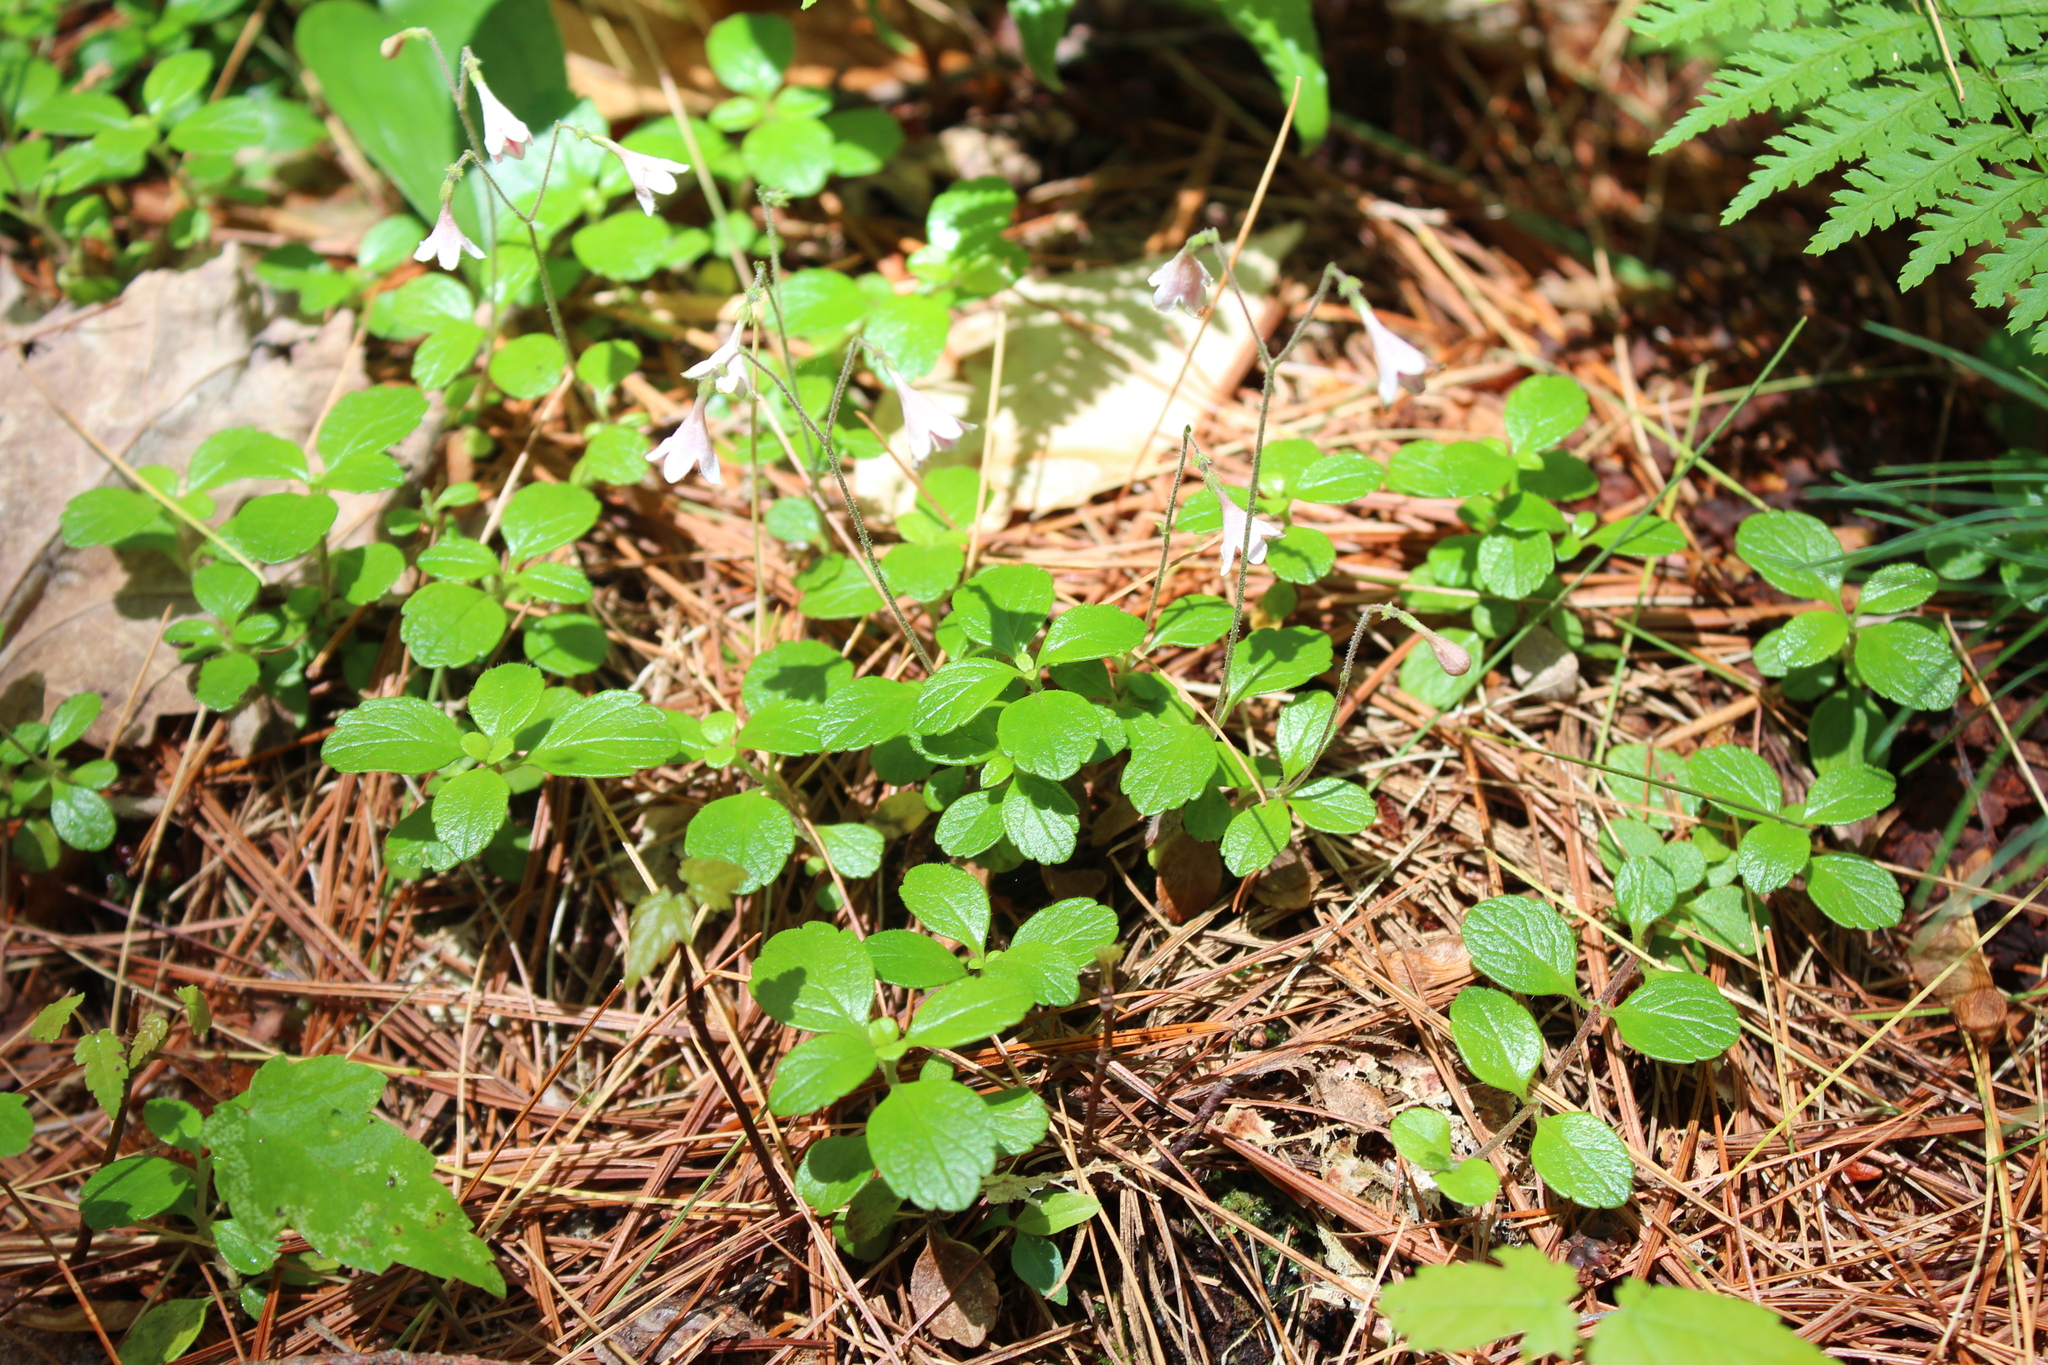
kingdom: Plantae
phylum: Tracheophyta
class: Magnoliopsida
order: Dipsacales
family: Caprifoliaceae
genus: Linnaea
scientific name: Linnaea borealis
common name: Twinflower
